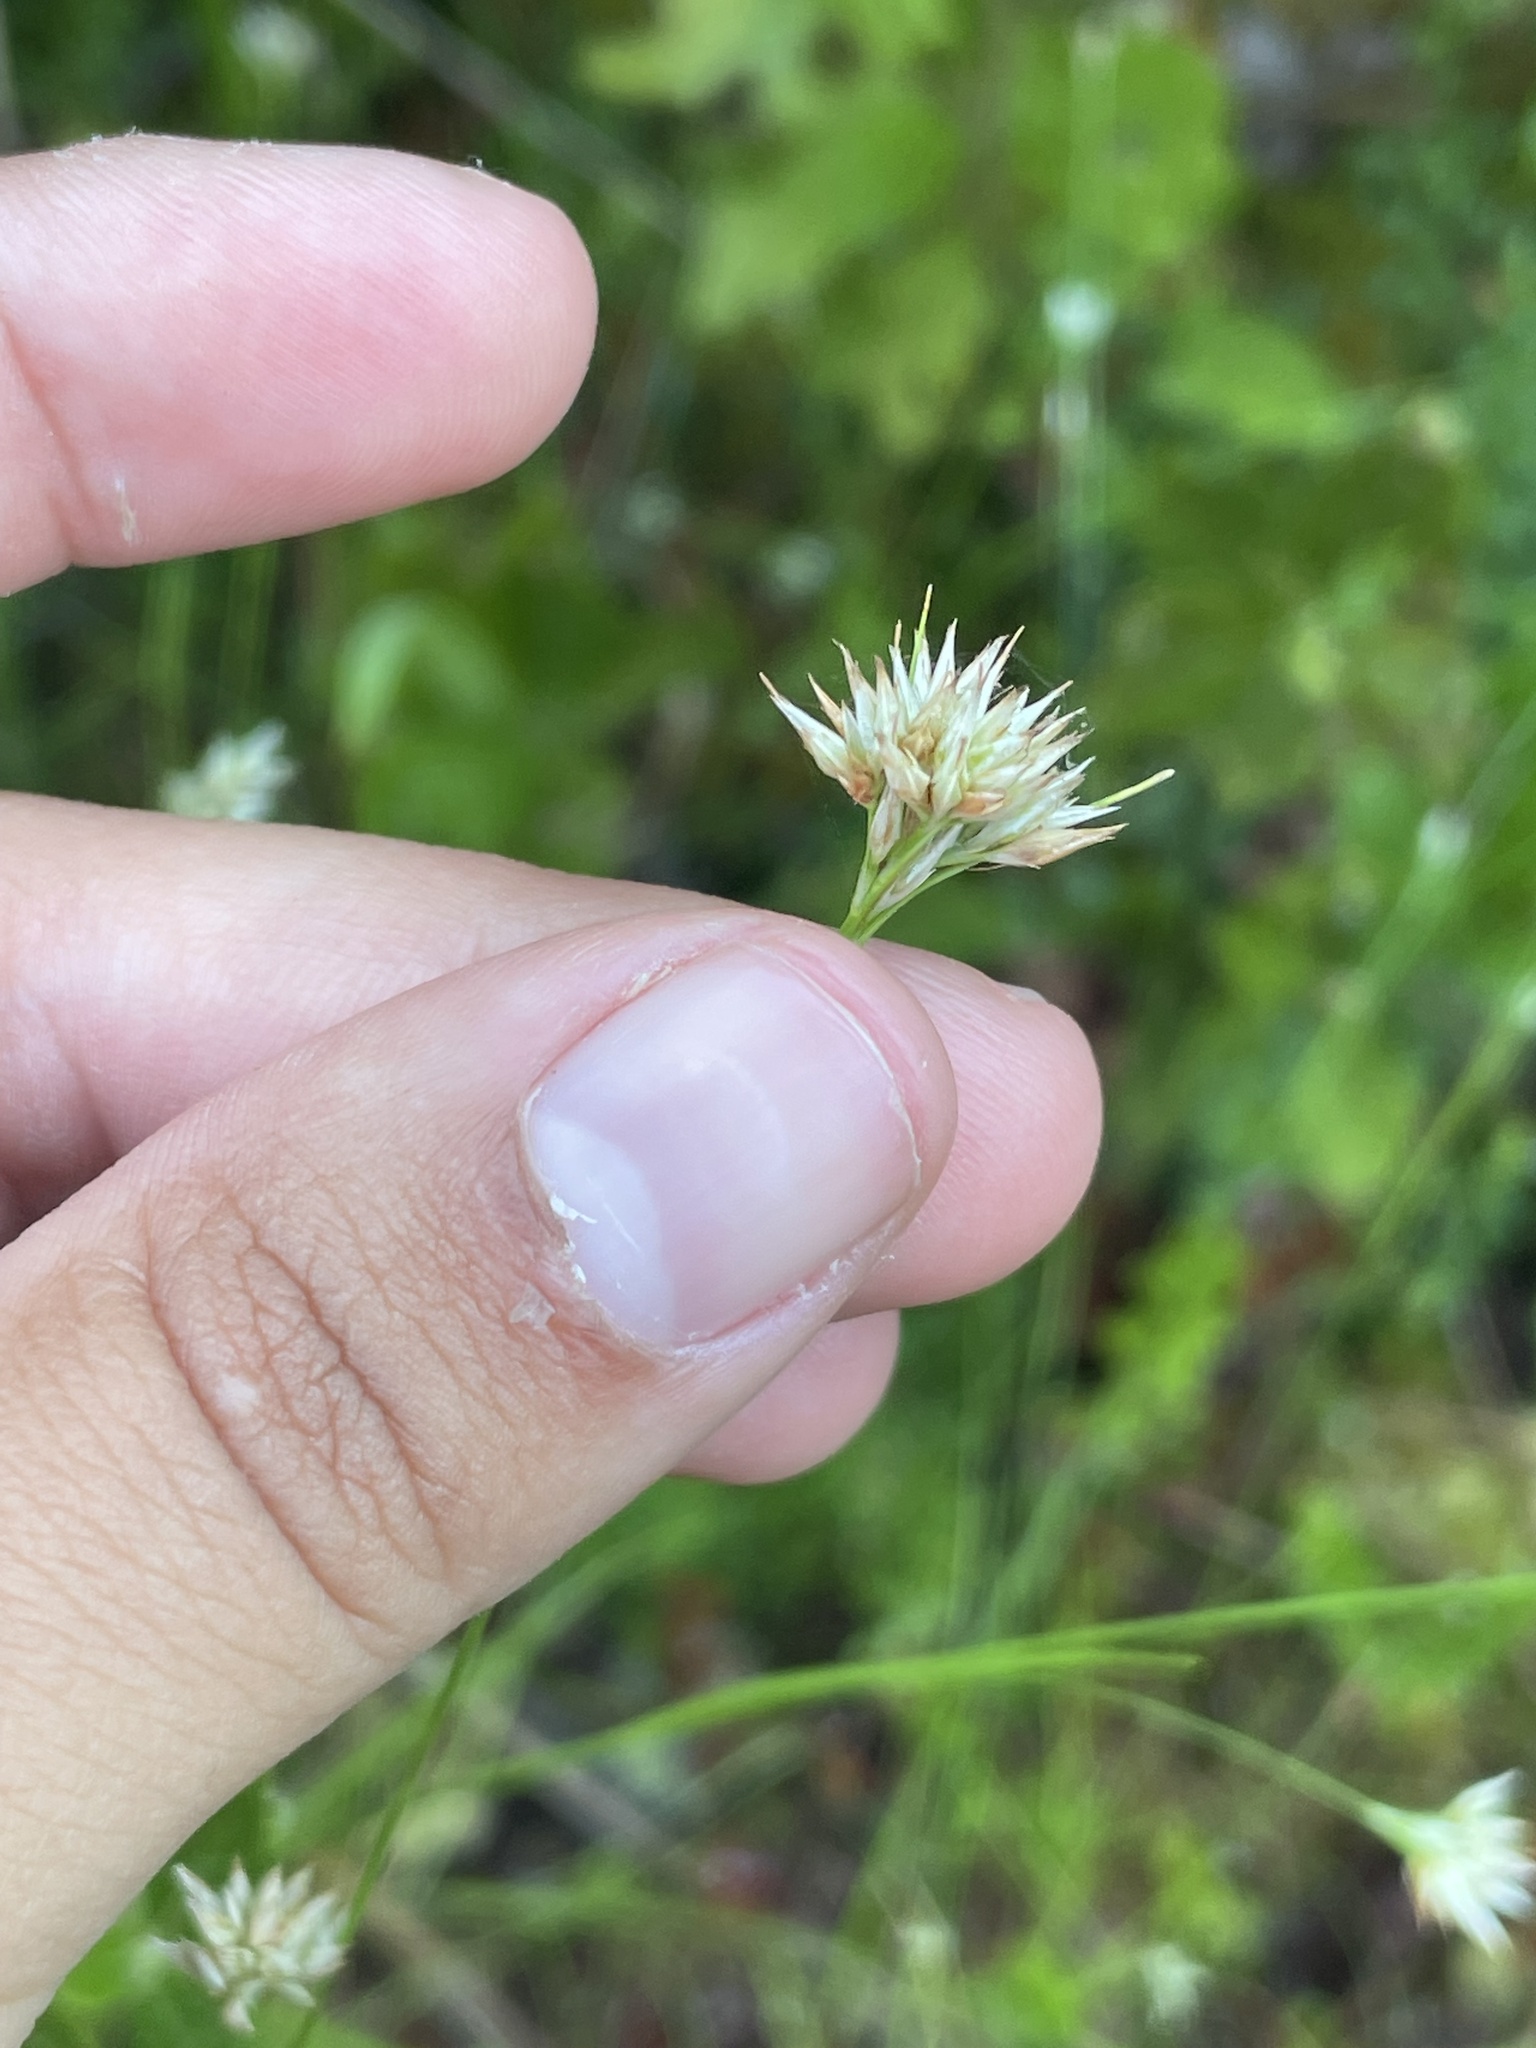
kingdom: Plantae
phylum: Tracheophyta
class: Liliopsida
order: Poales
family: Cyperaceae
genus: Rhynchospora
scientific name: Rhynchospora alba
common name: White beak-sedge
